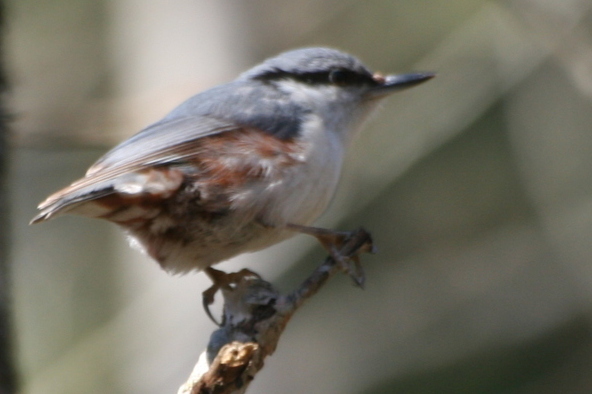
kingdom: Animalia
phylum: Chordata
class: Aves
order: Passeriformes
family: Sittidae
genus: Sitta
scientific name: Sitta europaea
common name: Eurasian nuthatch
